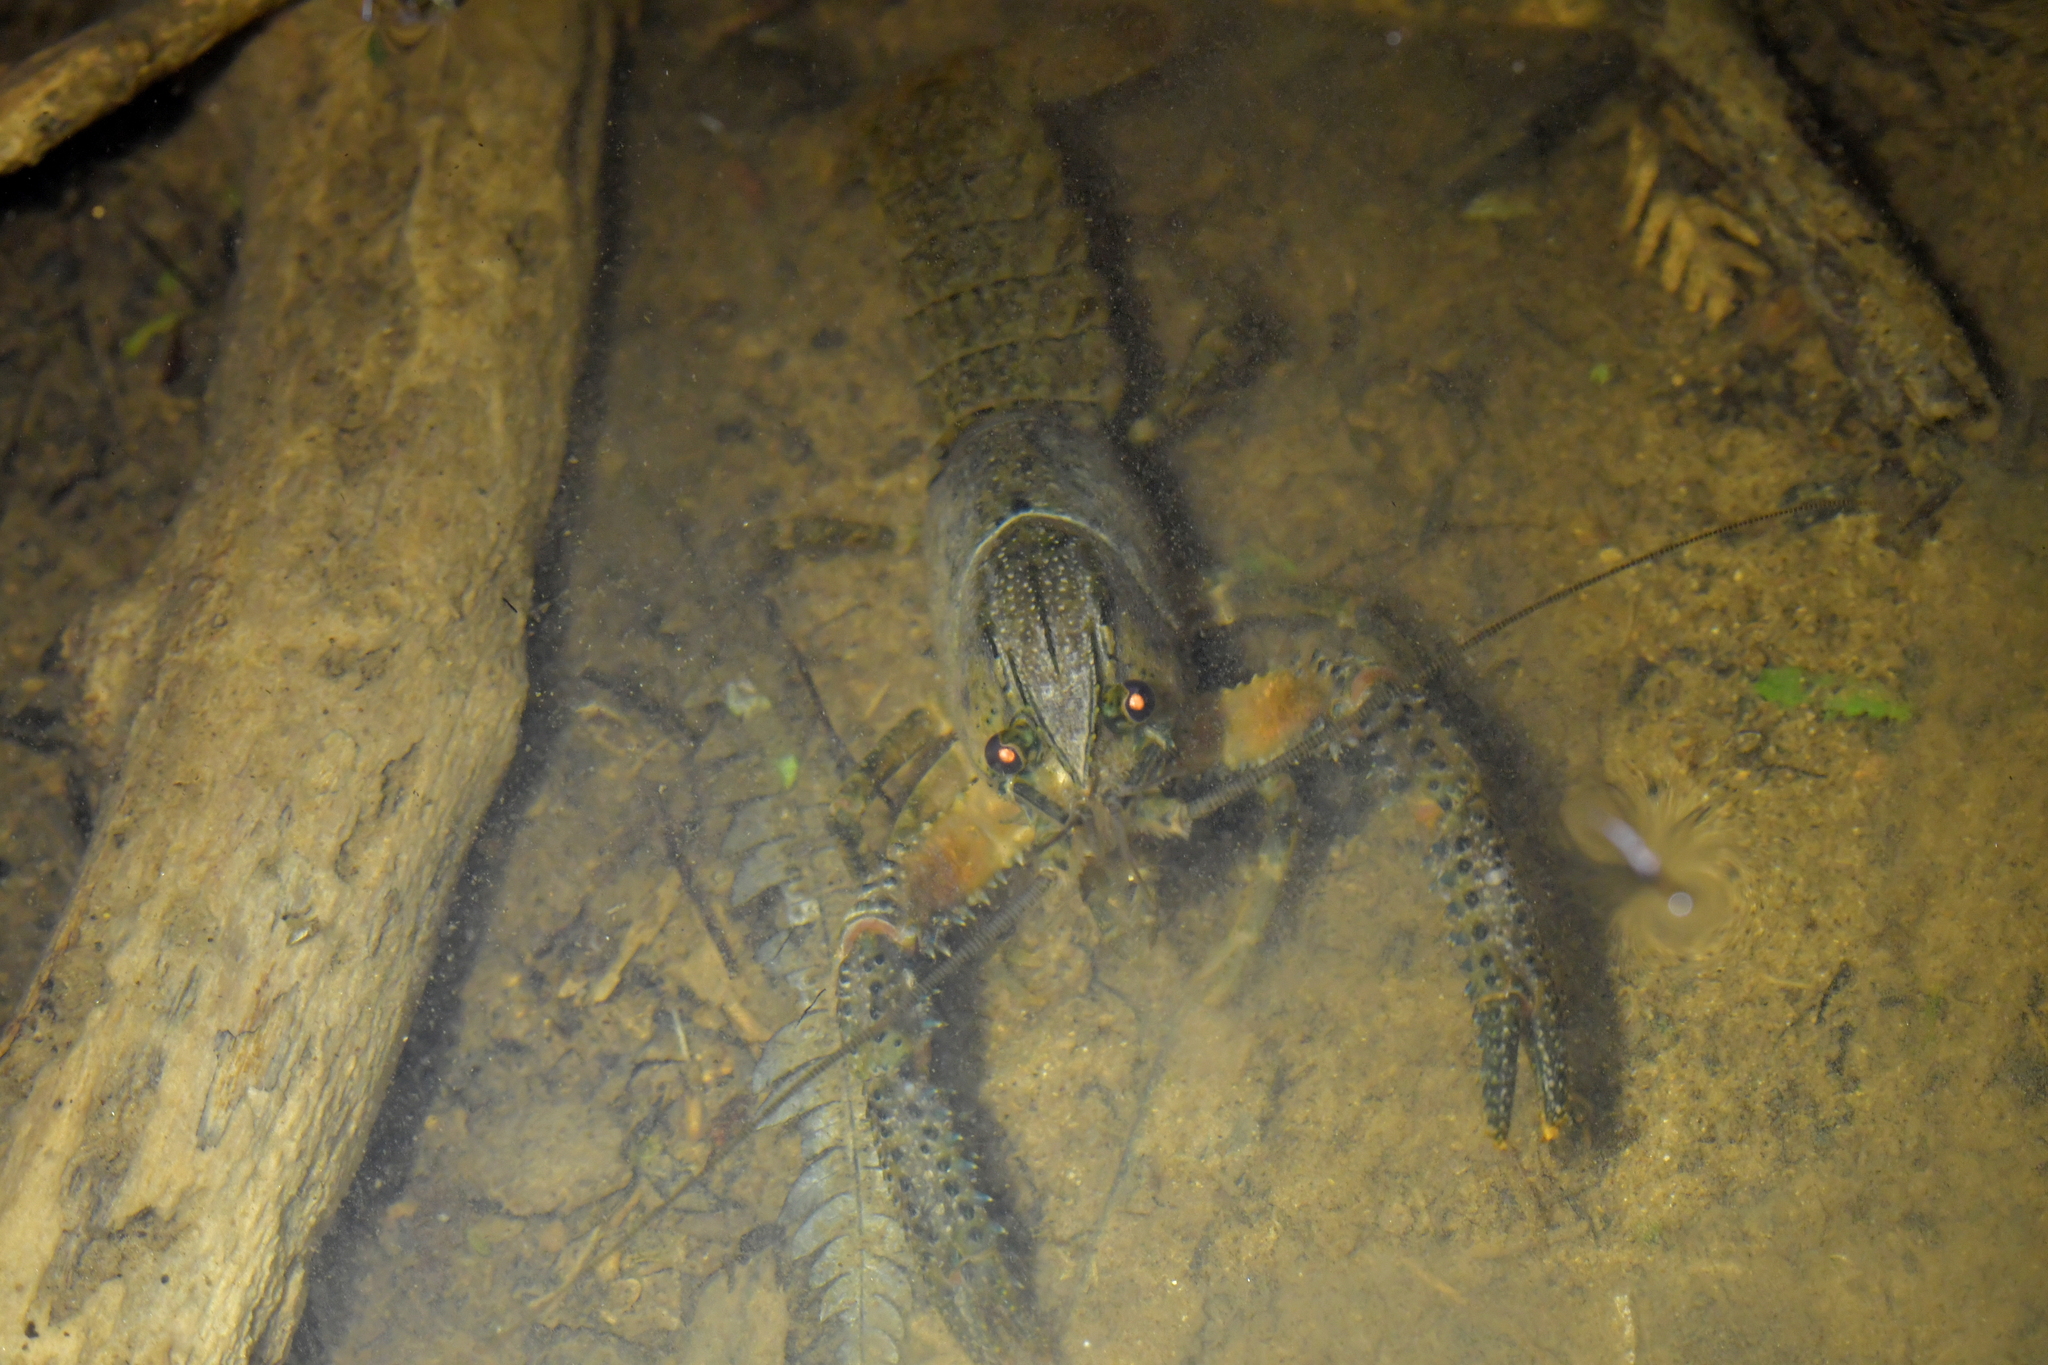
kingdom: Animalia
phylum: Arthropoda
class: Malacostraca
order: Decapoda
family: Parastacidae
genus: Paranephrops
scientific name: Paranephrops planifrons
